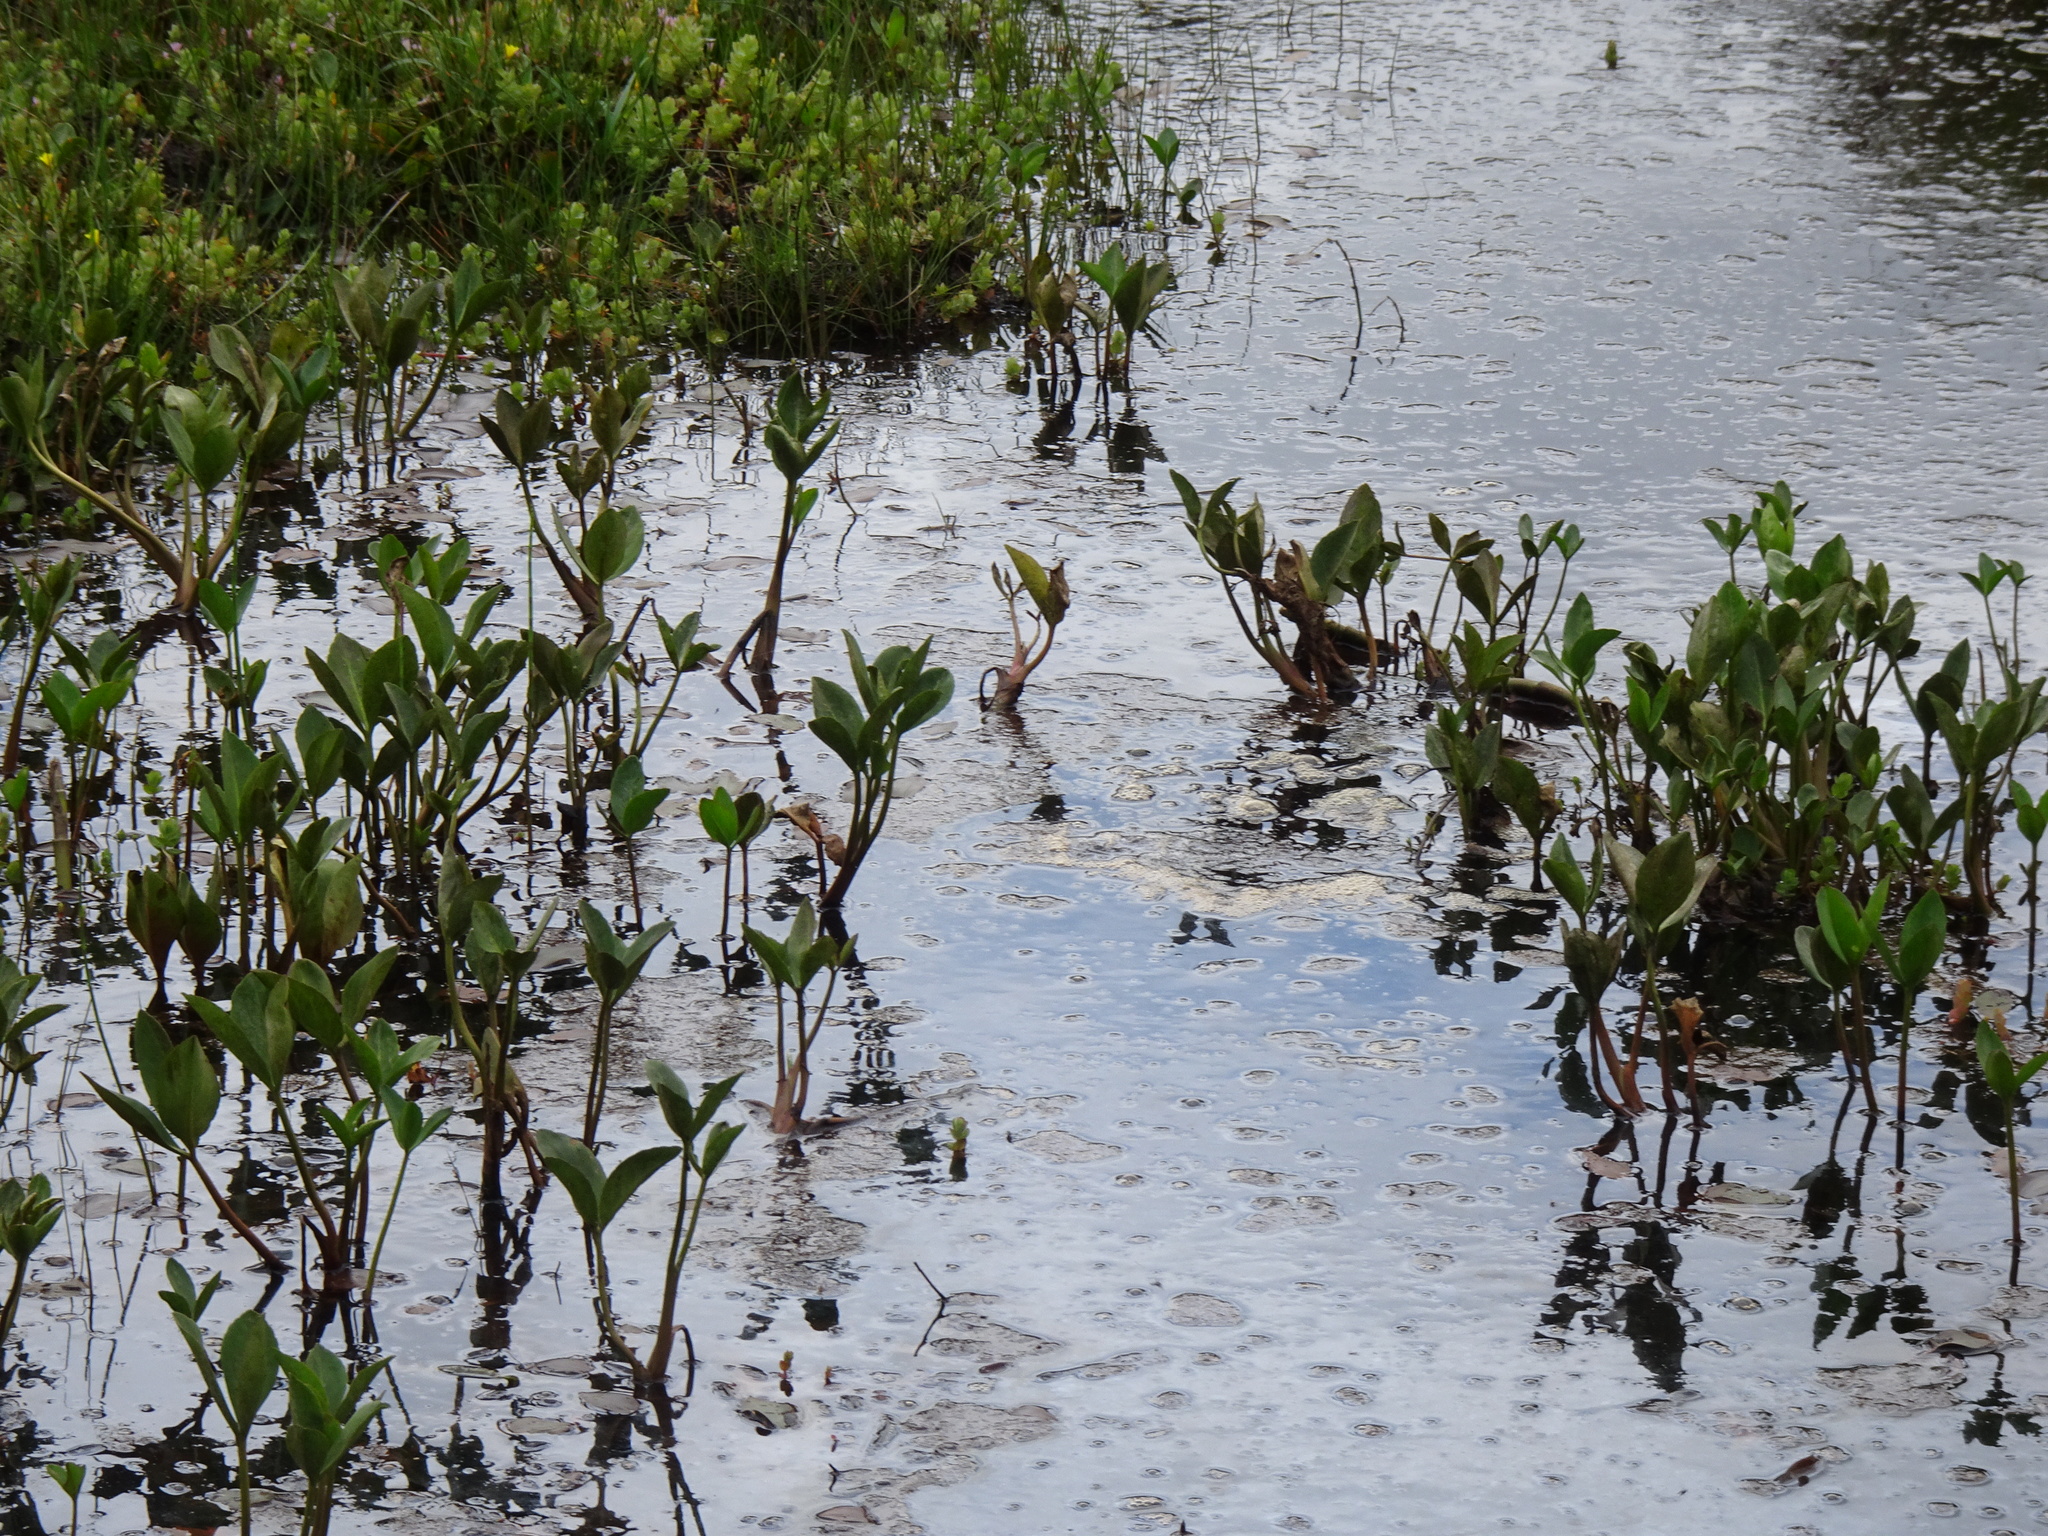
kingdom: Plantae
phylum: Tracheophyta
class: Magnoliopsida
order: Asterales
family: Menyanthaceae
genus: Menyanthes
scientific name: Menyanthes trifoliata
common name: Bogbean
